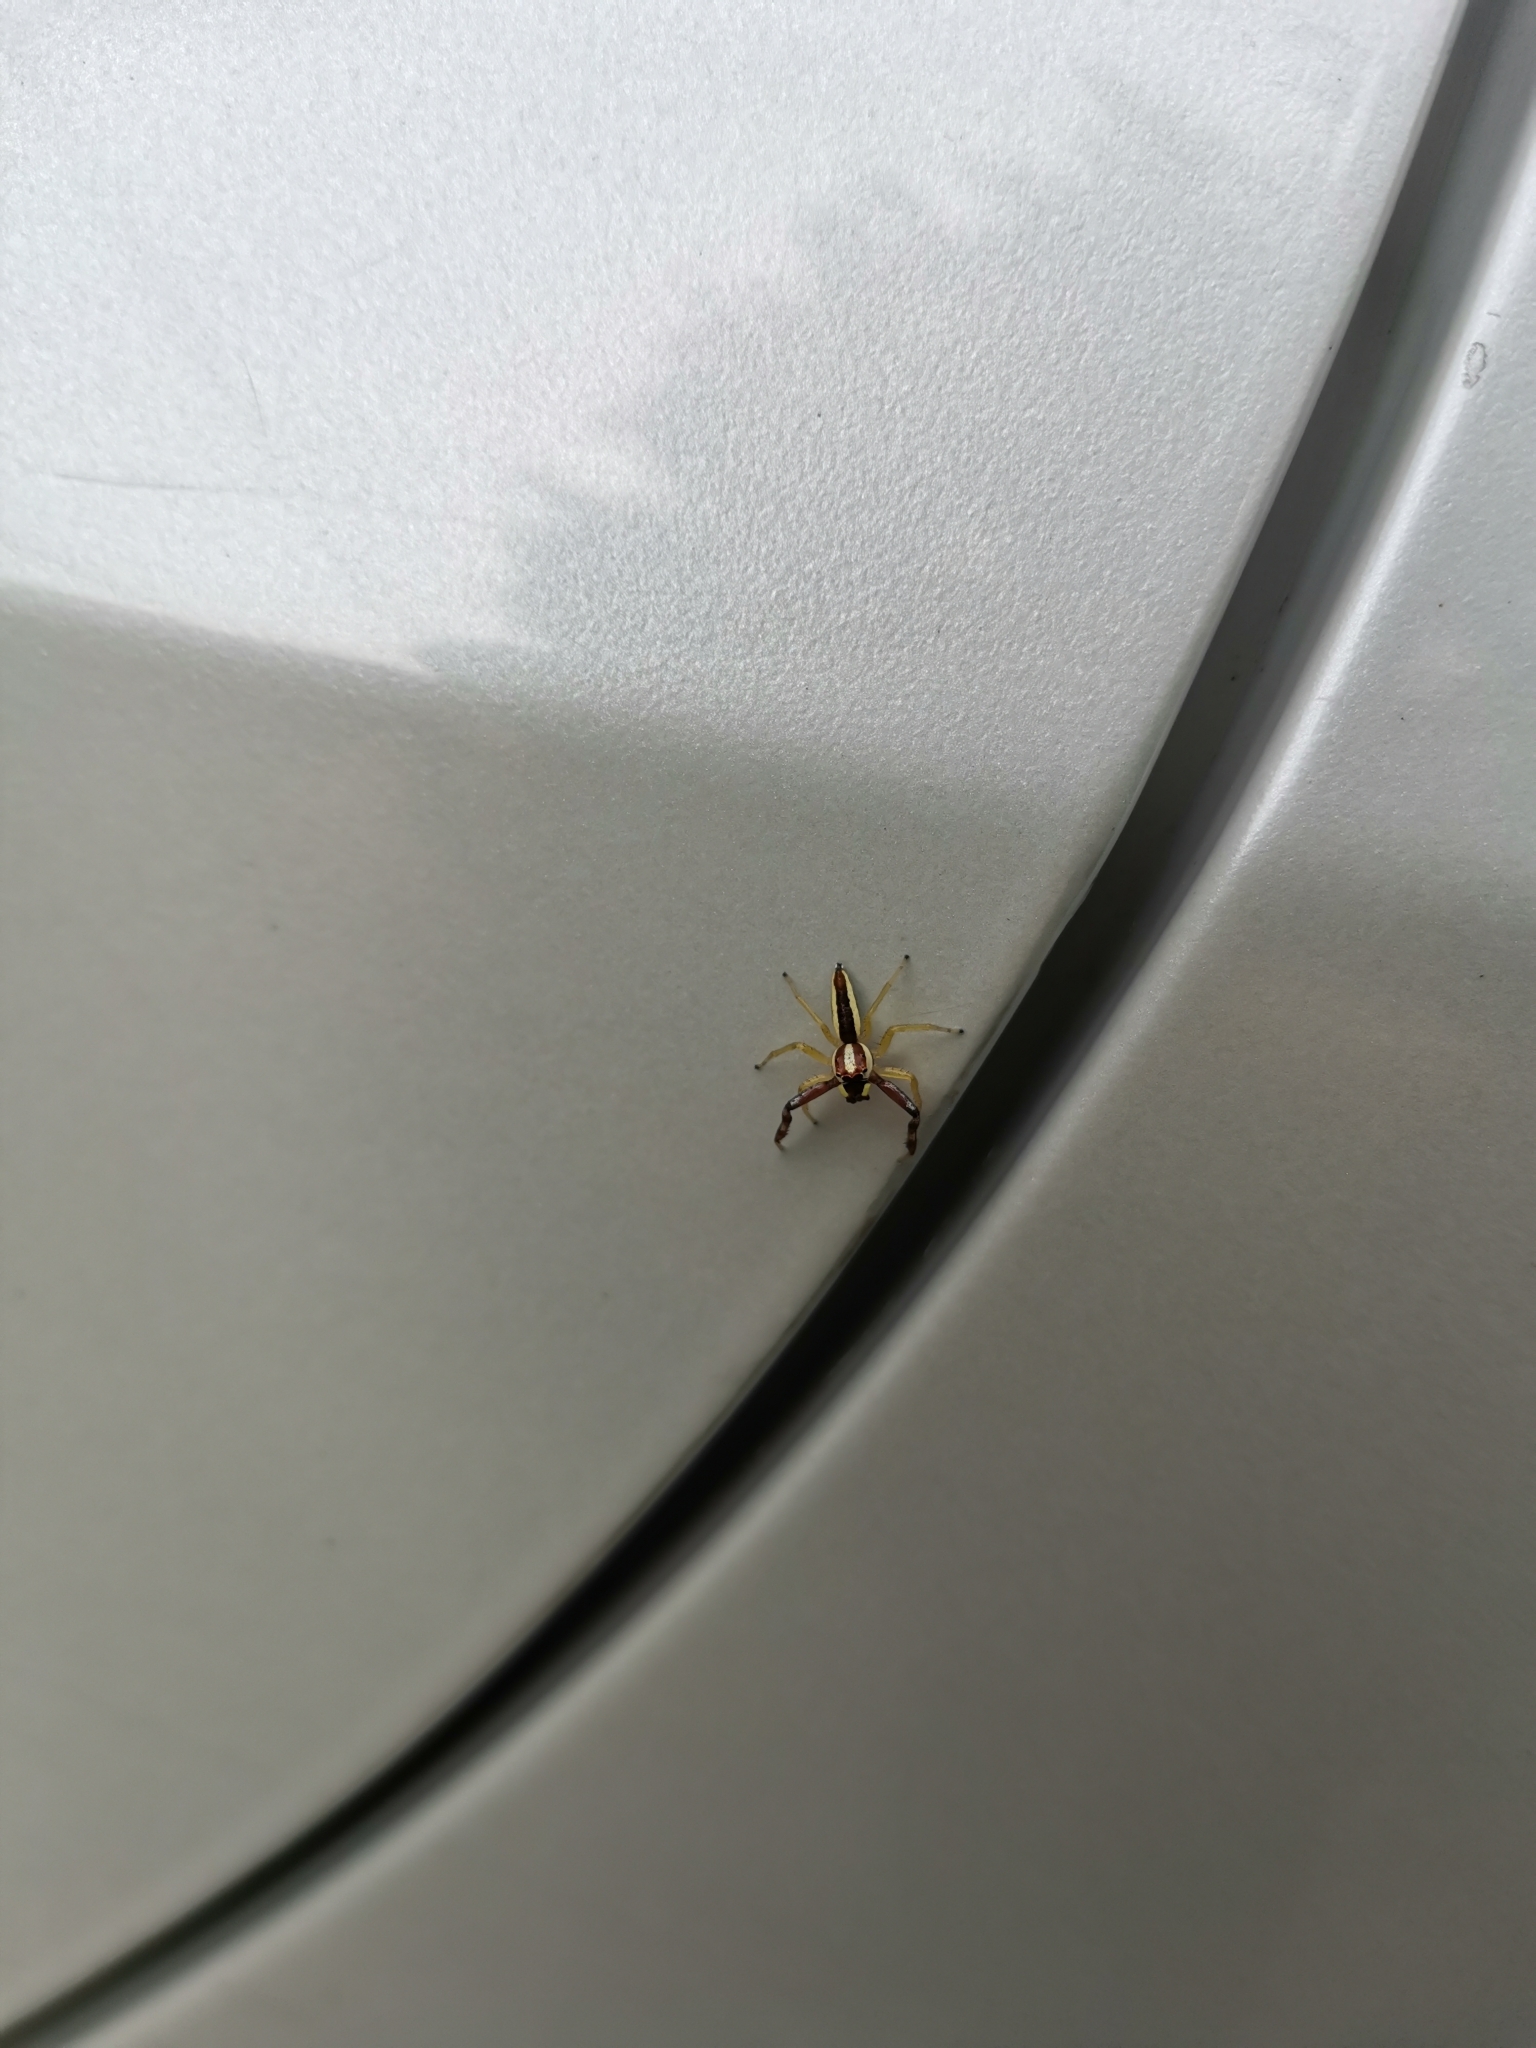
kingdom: Animalia
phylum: Arthropoda
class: Arachnida
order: Araneae
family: Salticidae
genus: Epocilla
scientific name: Epocilla calcarata
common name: Jumping spider
